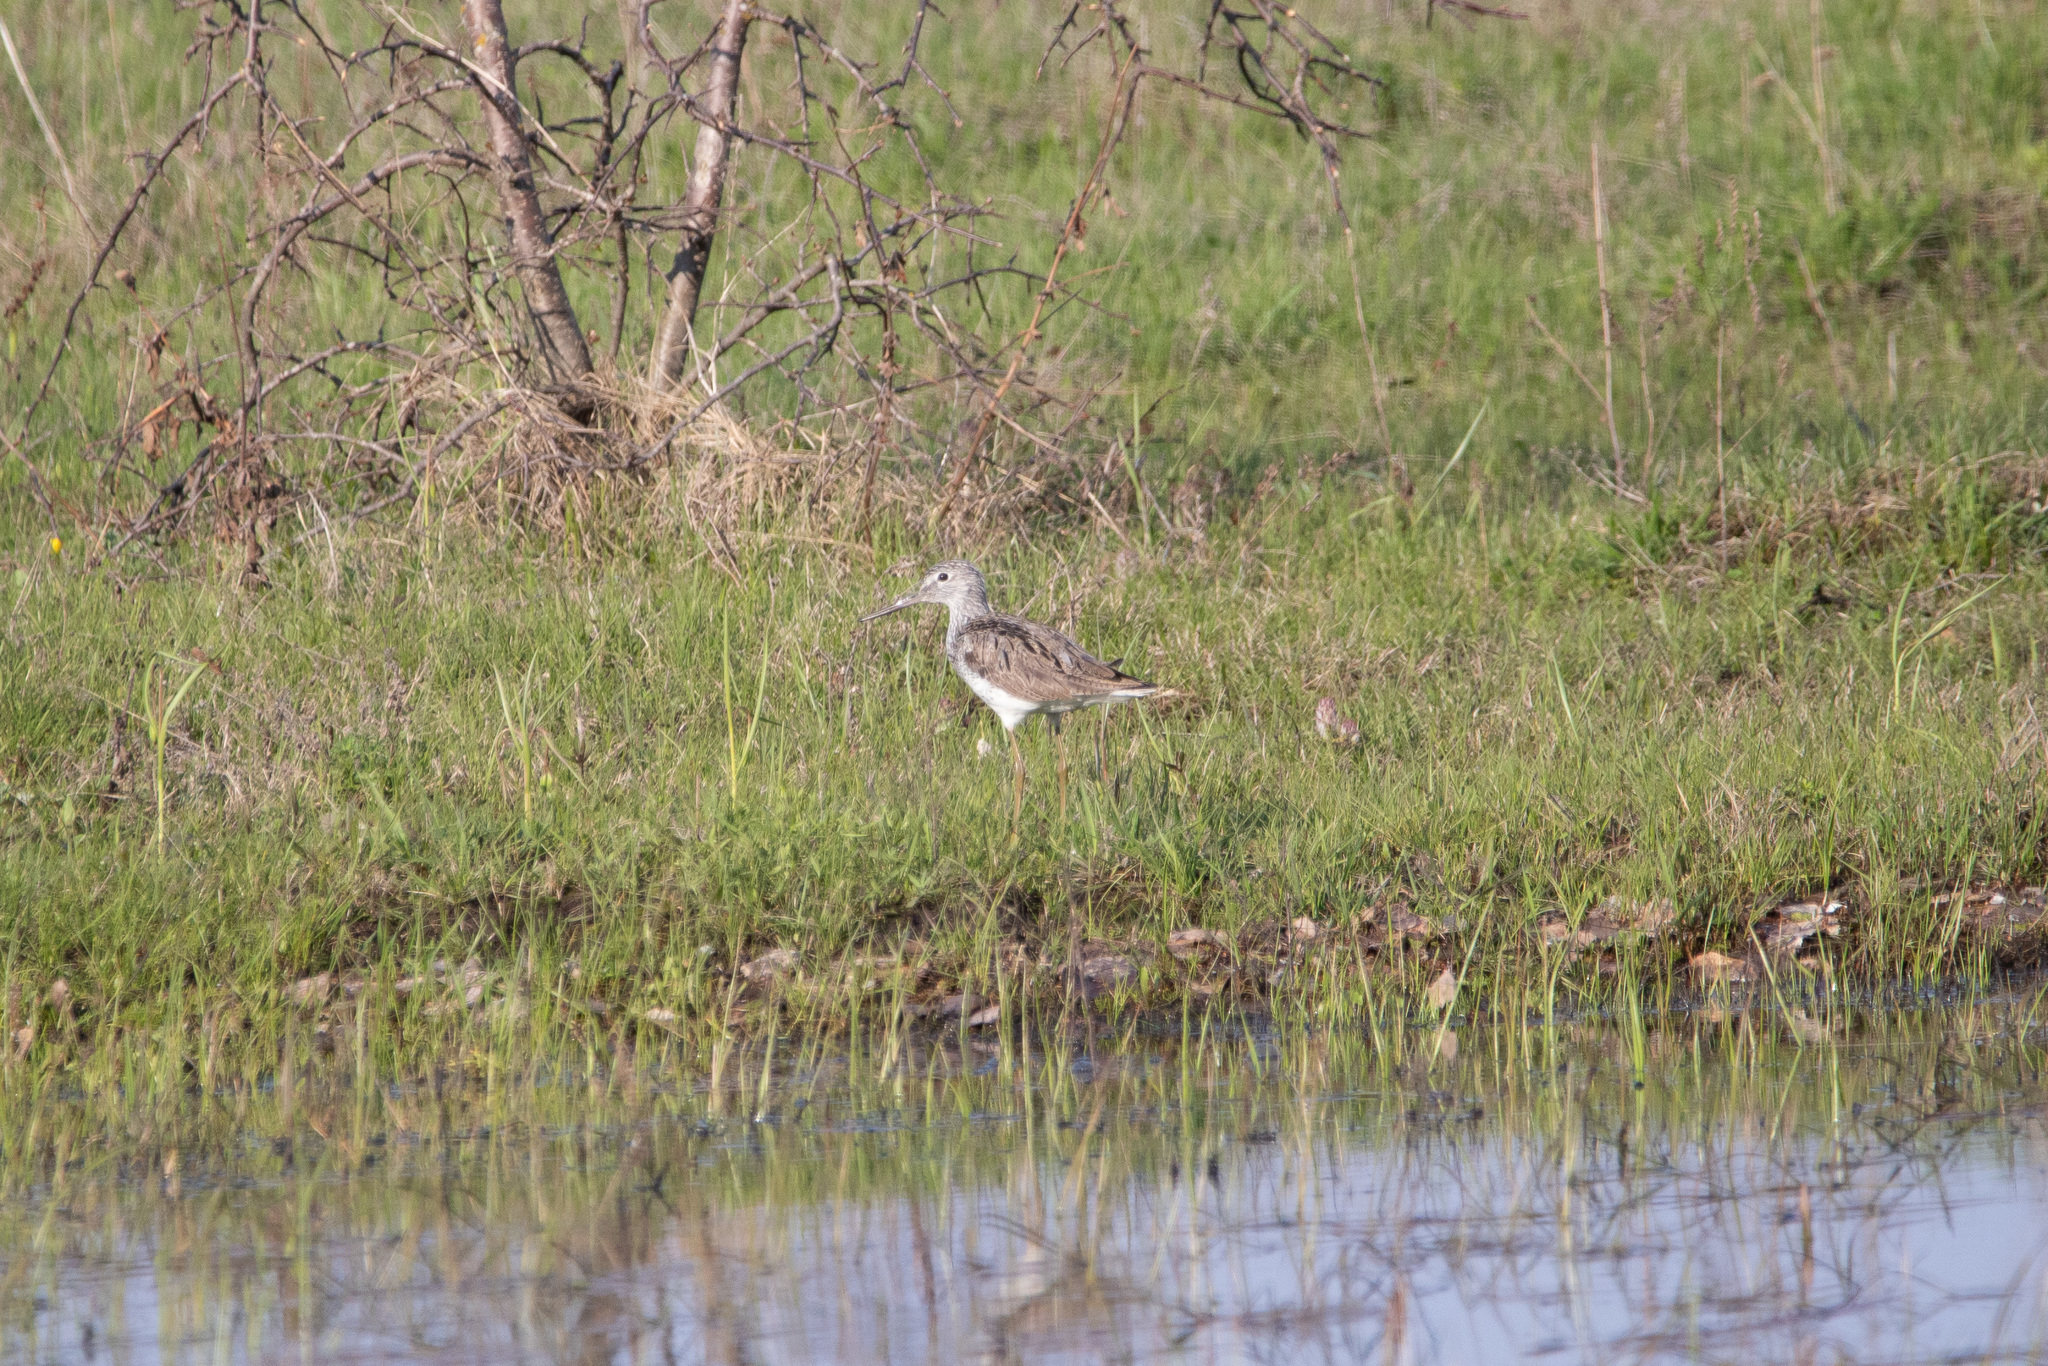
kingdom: Animalia
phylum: Chordata
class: Aves
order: Charadriiformes
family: Scolopacidae
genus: Tringa
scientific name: Tringa nebularia
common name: Common greenshank
